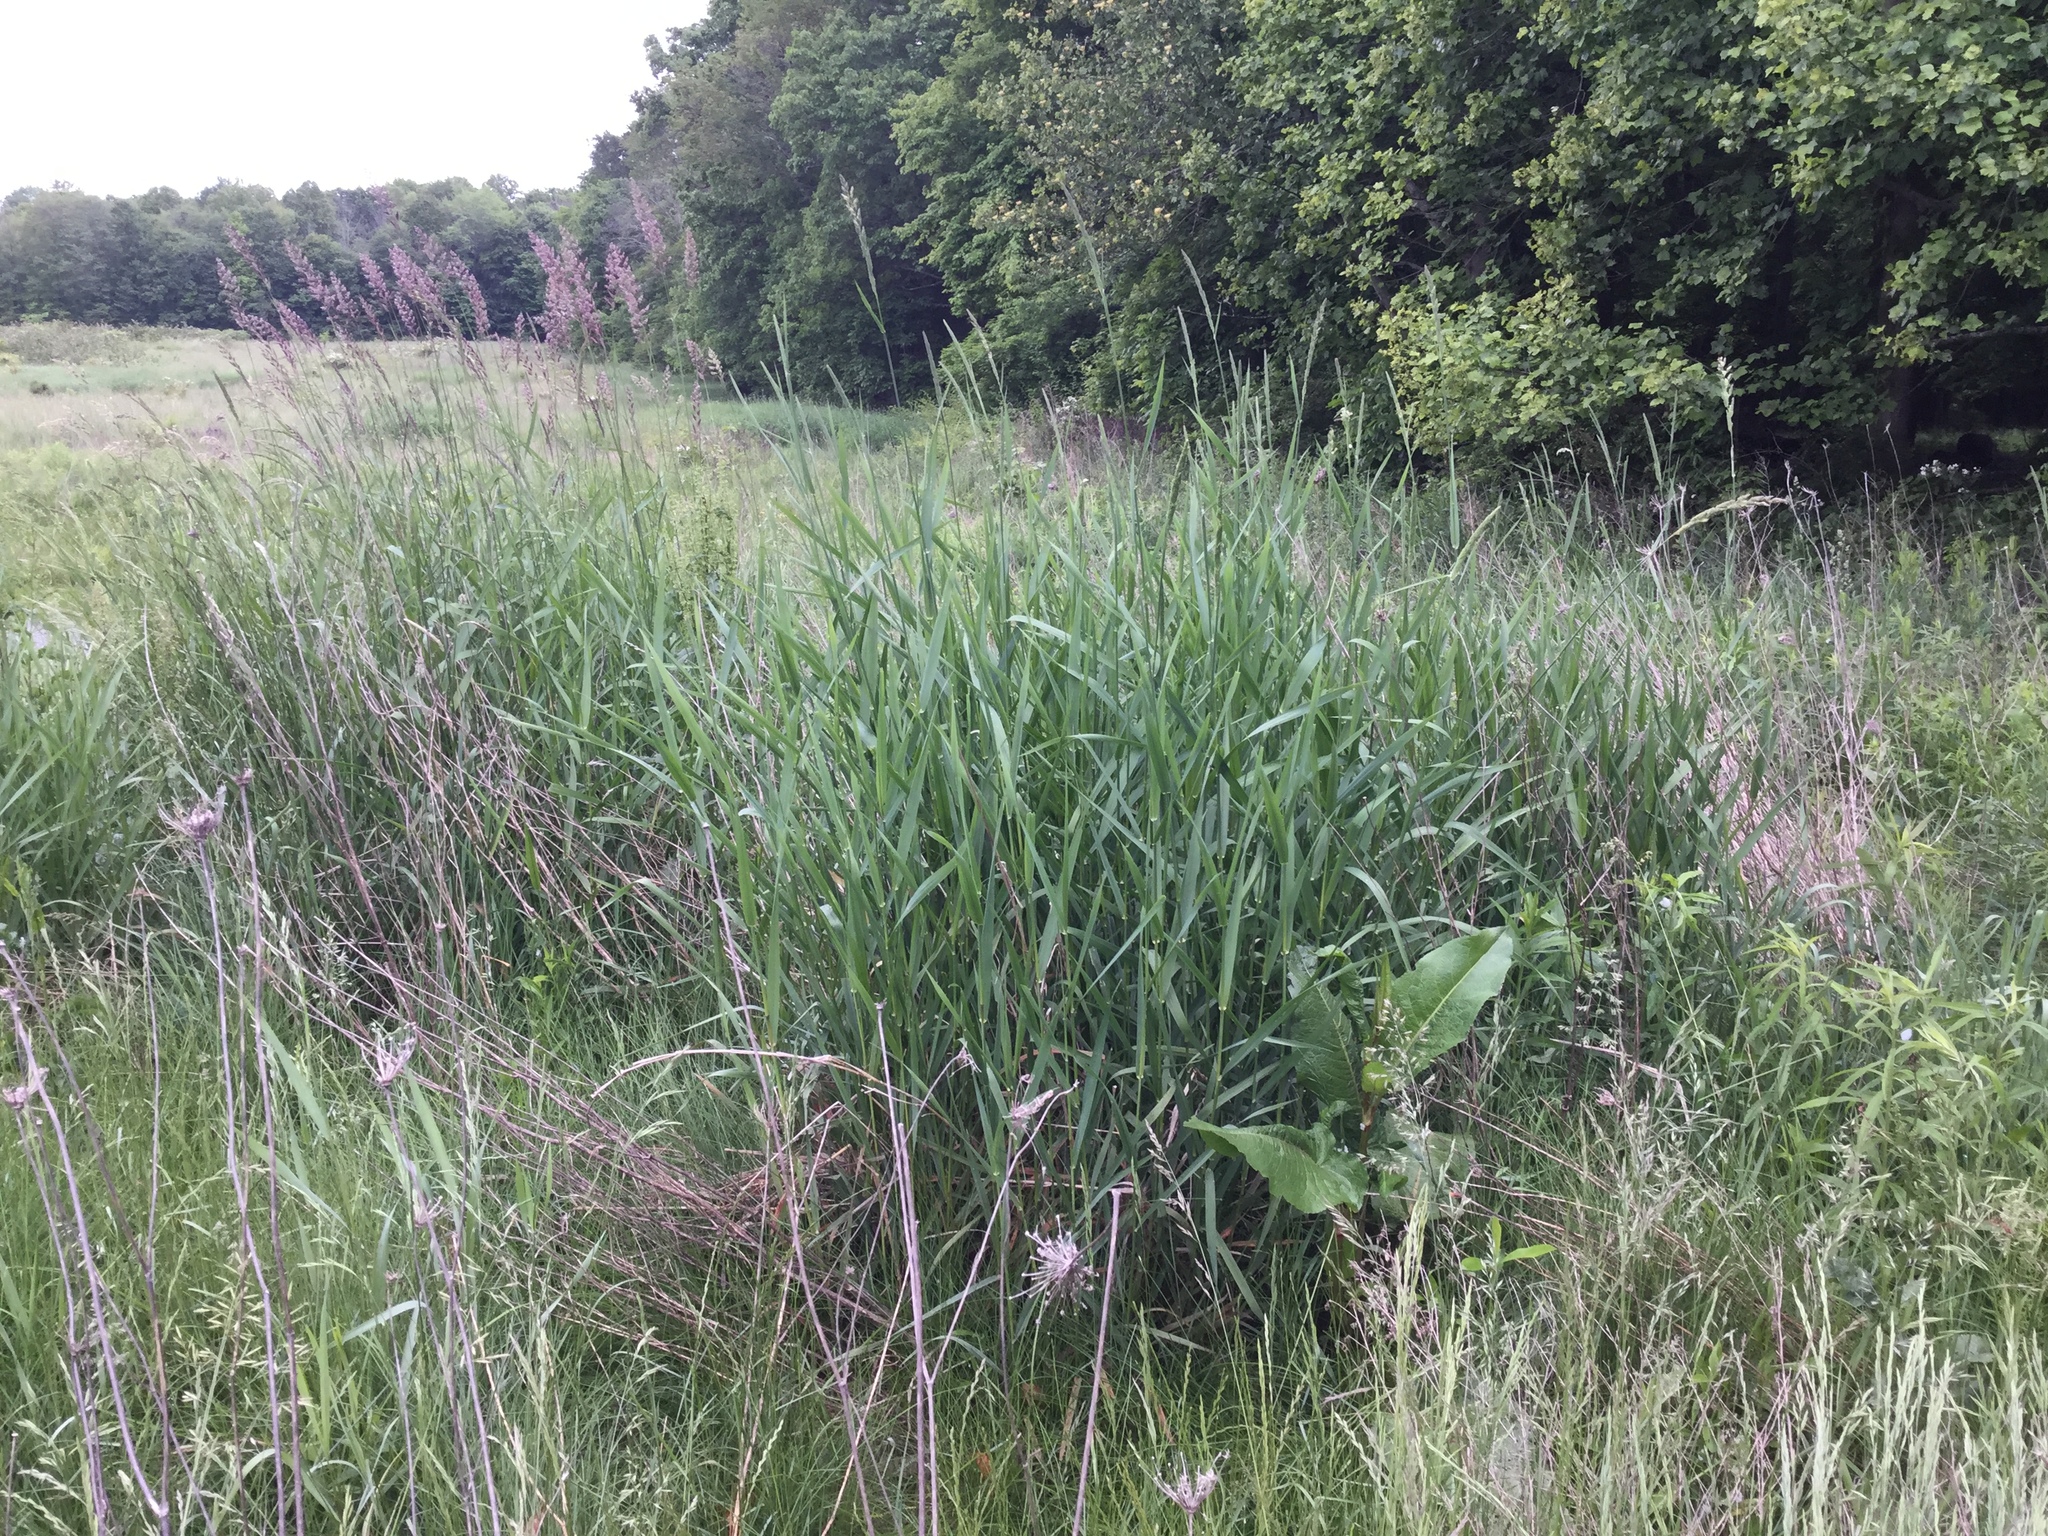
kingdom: Plantae
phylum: Tracheophyta
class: Liliopsida
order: Poales
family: Poaceae
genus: Phalaris
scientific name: Phalaris arundinacea
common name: Reed canary-grass
